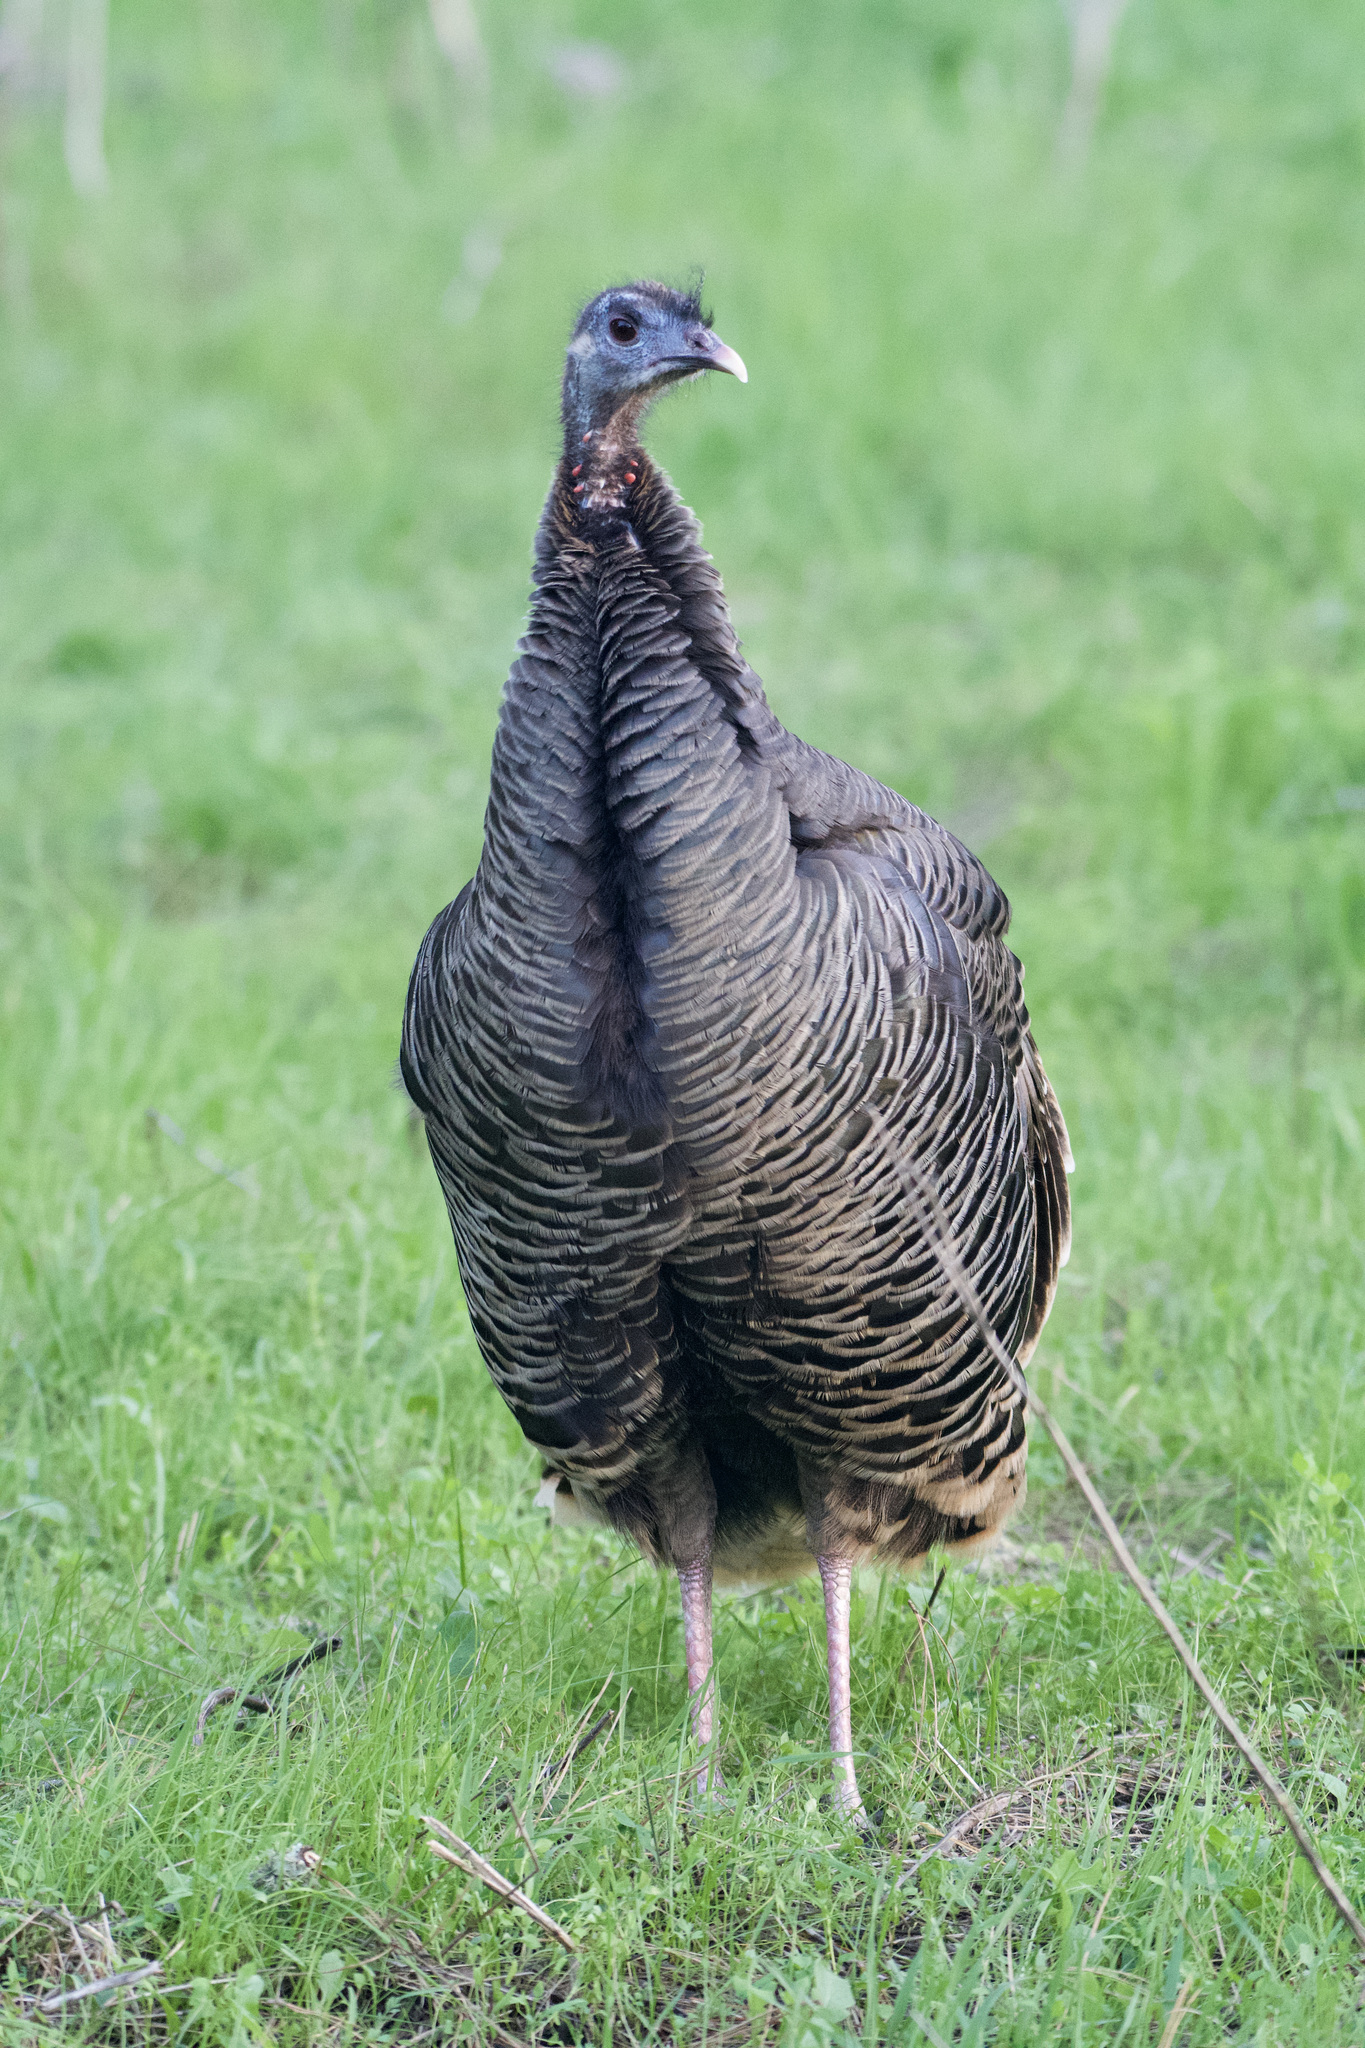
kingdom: Animalia
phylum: Chordata
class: Aves
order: Galliformes
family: Phasianidae
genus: Meleagris
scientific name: Meleagris gallopavo
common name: Wild turkey
